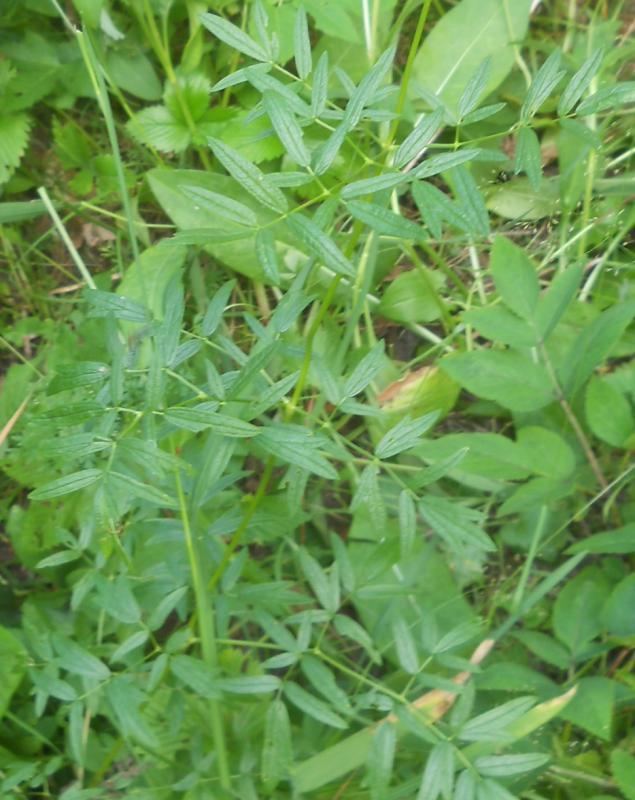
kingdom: Plantae
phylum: Tracheophyta
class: Magnoliopsida
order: Ranunculales
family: Ranunculaceae
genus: Thalictrum
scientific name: Thalictrum lucidum
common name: Shining meadow-rue
